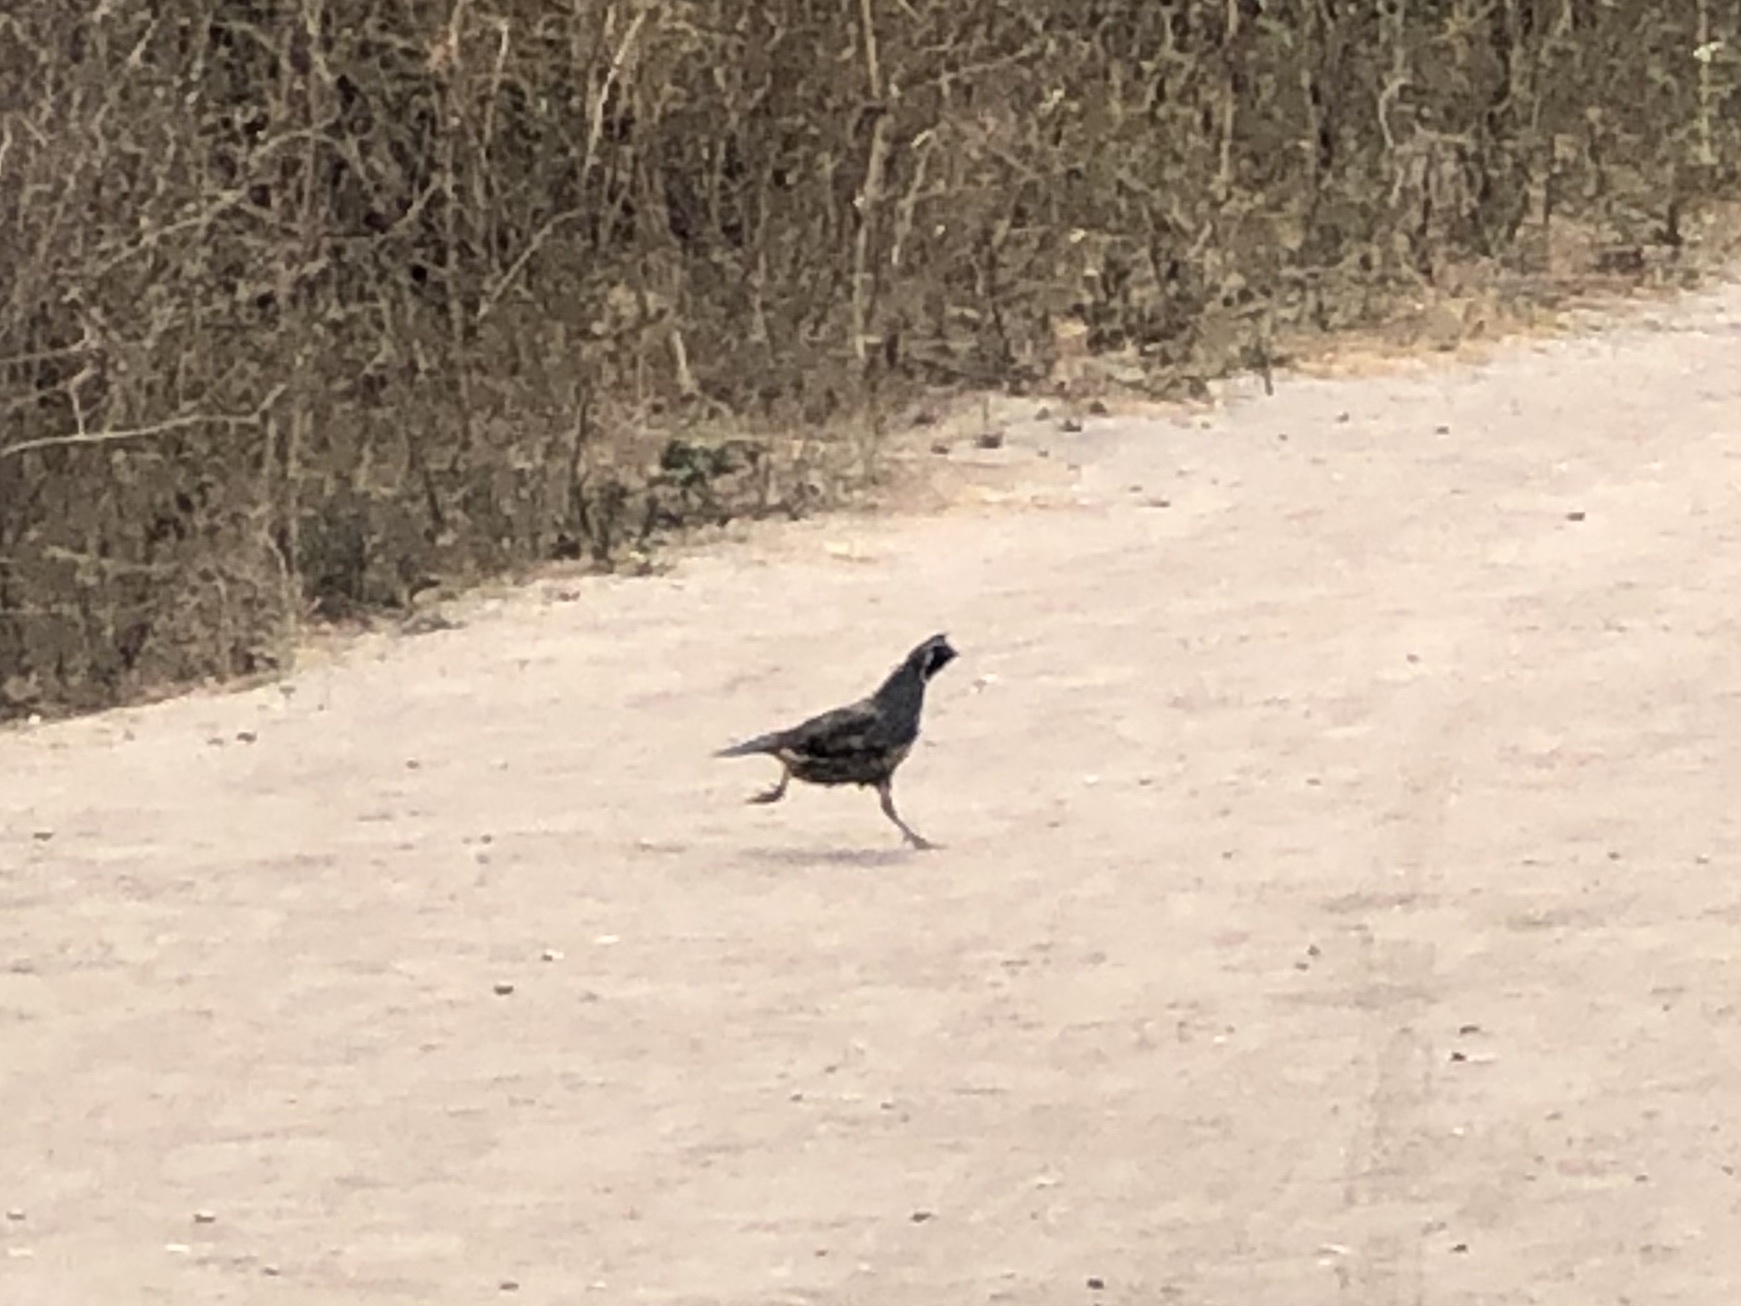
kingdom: Animalia
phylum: Chordata
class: Aves
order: Galliformes
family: Odontophoridae
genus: Callipepla
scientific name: Callipepla californica
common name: California quail
